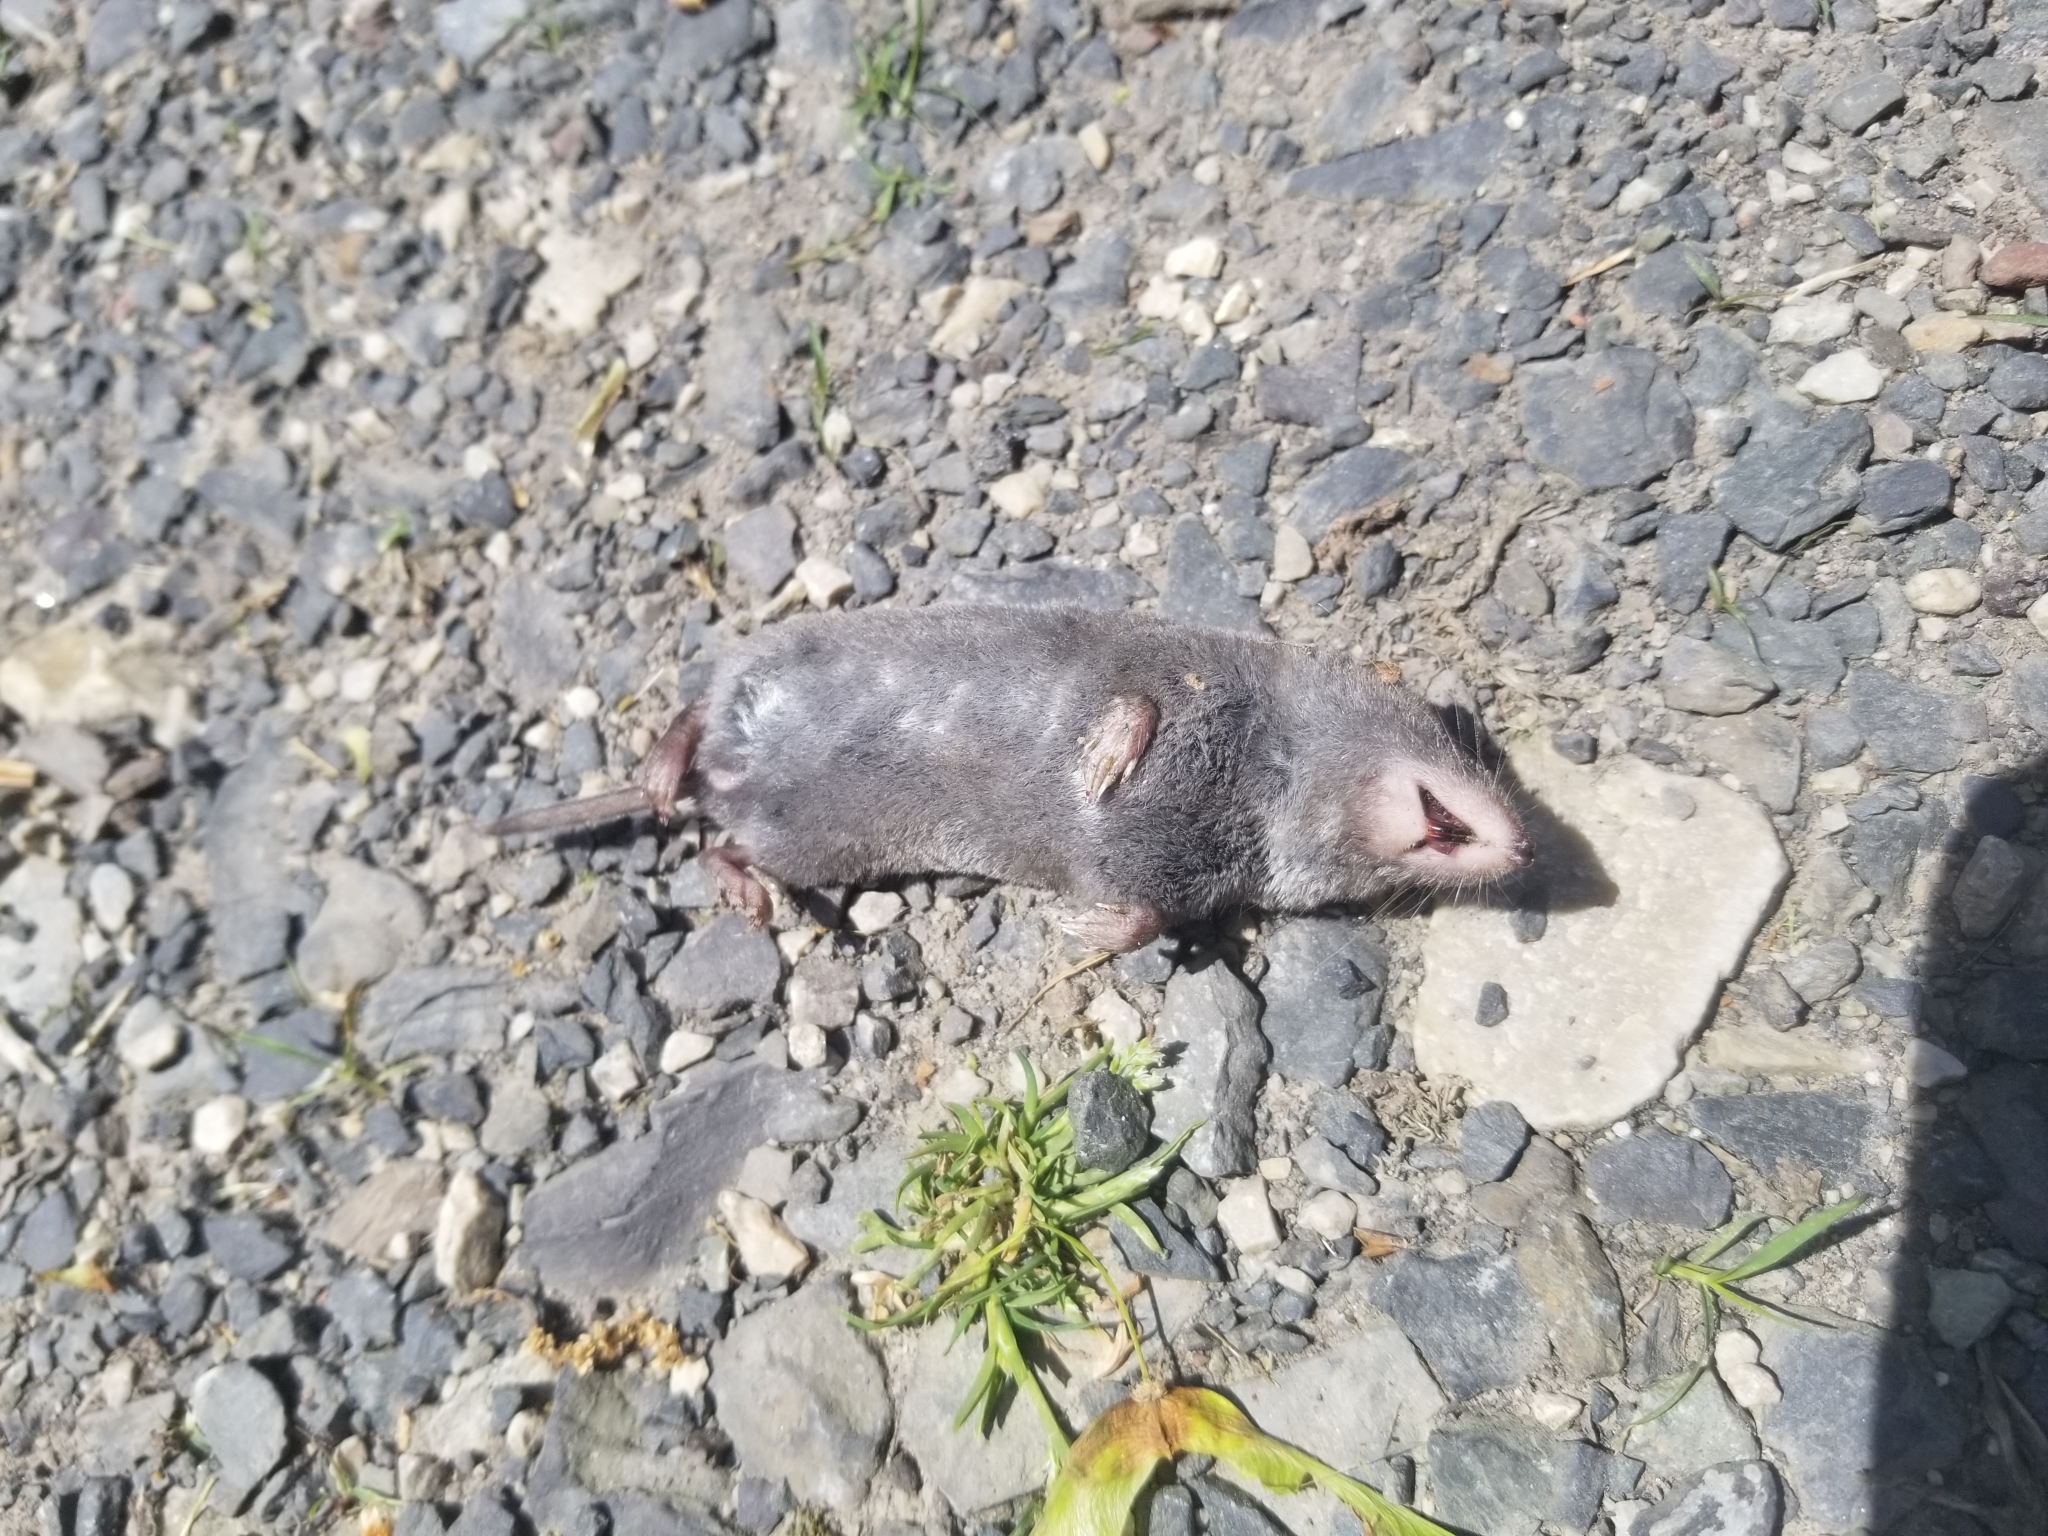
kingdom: Animalia
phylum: Chordata
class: Mammalia
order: Soricomorpha
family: Soricidae
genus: Blarina
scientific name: Blarina brevicauda
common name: Northern short-tailed shrew
